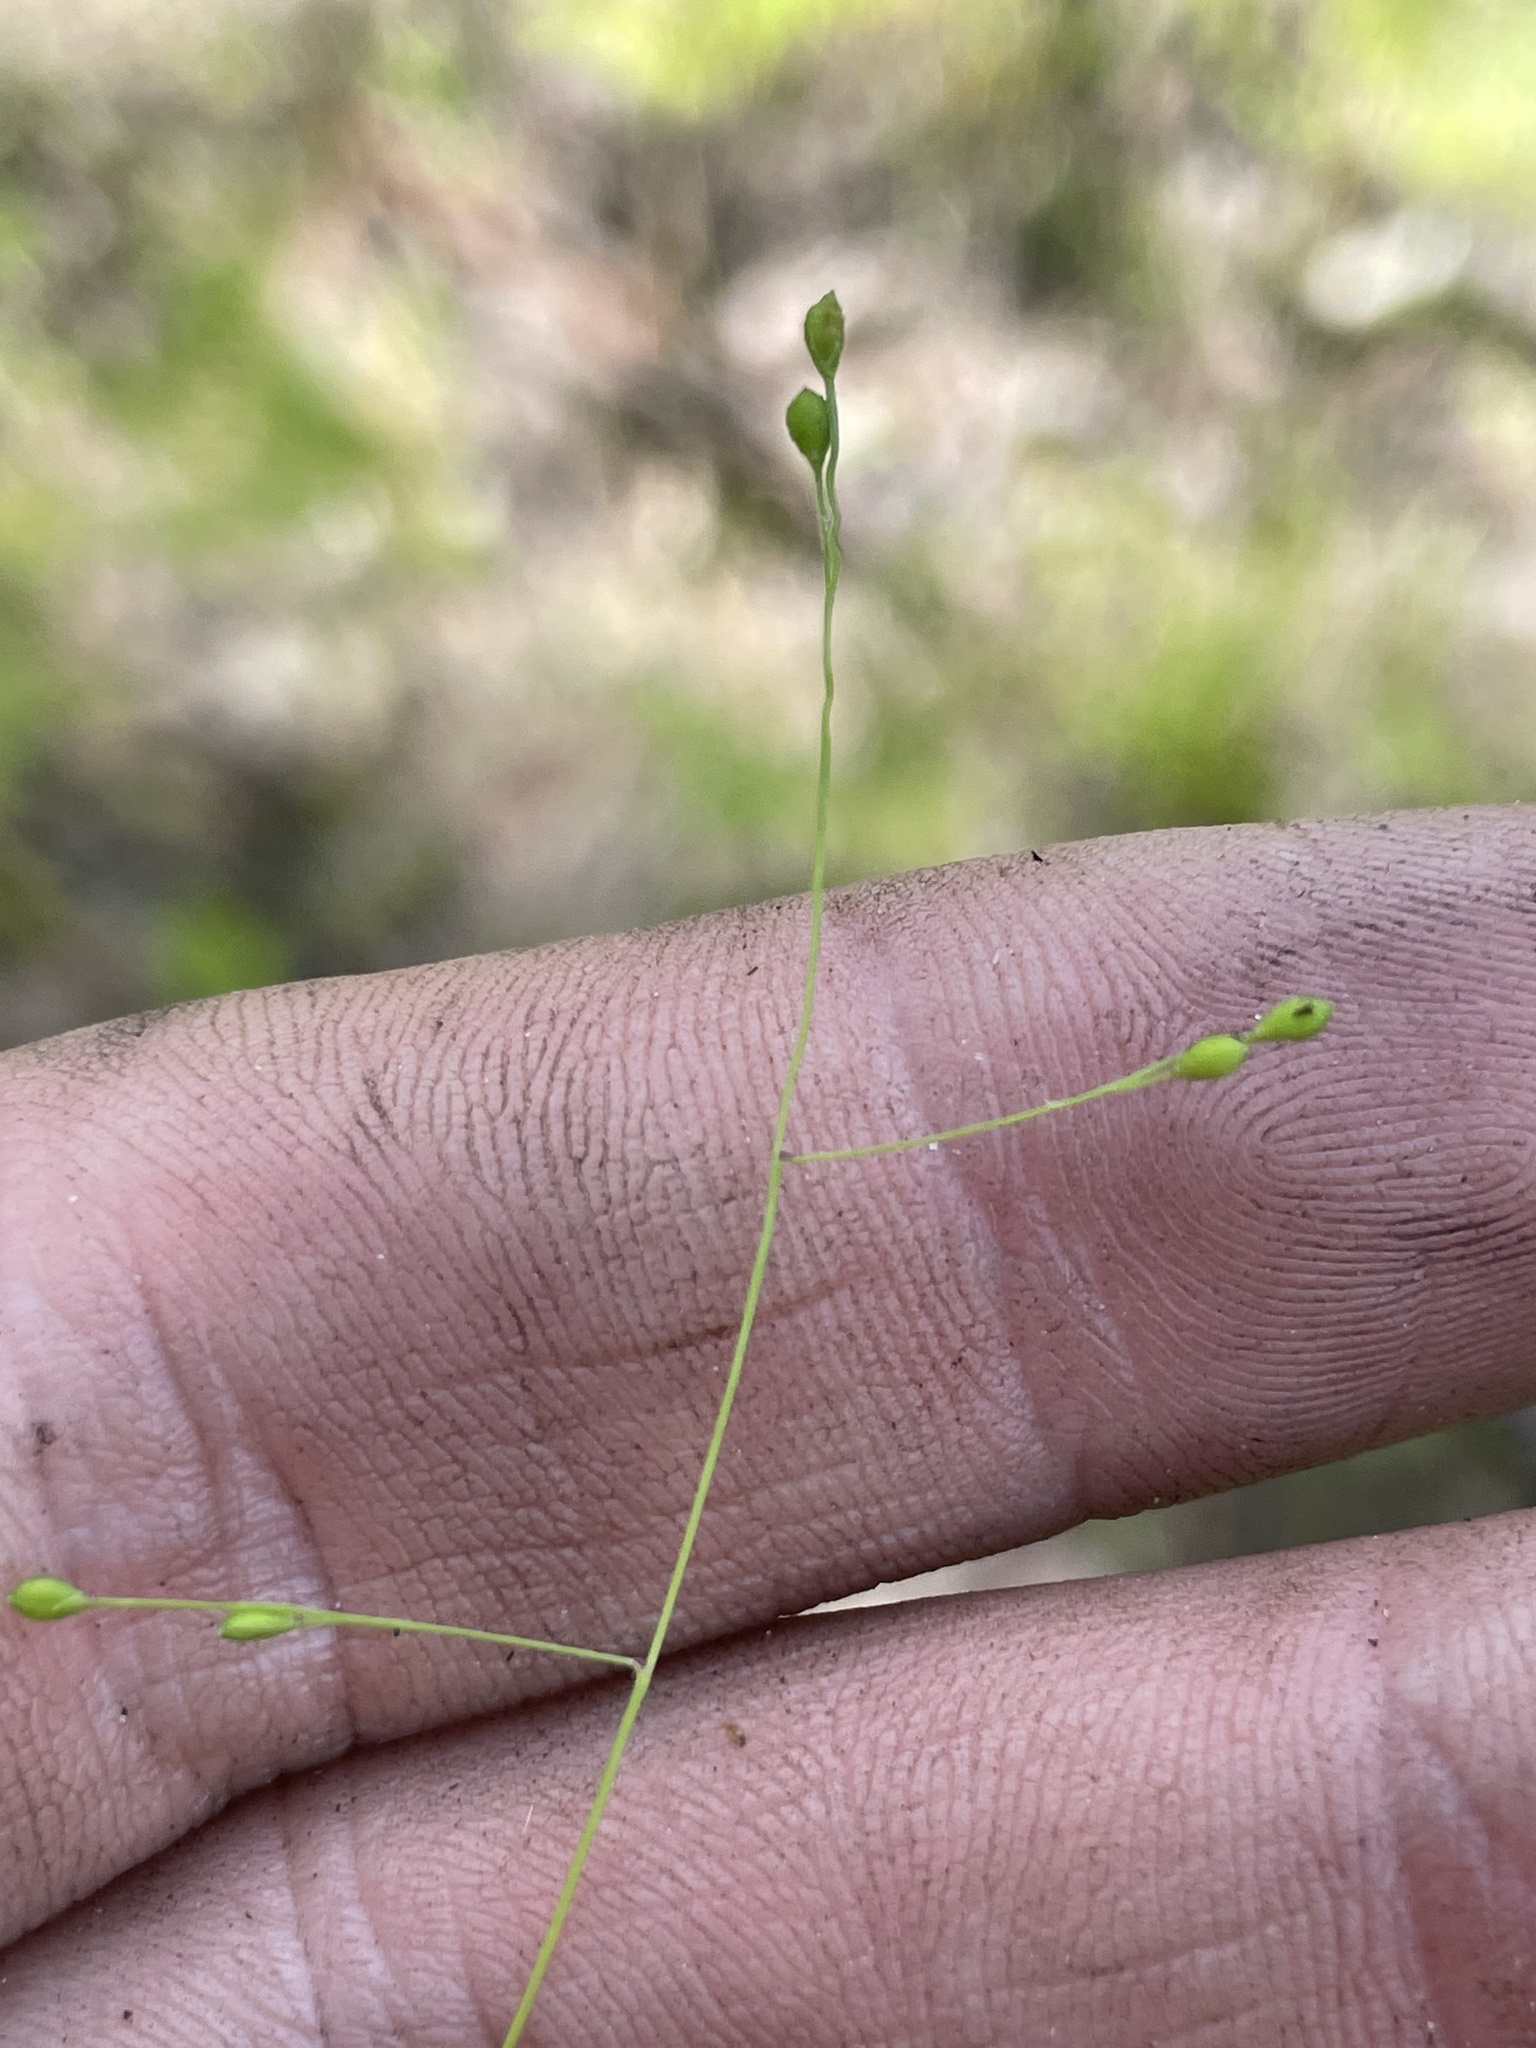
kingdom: Plantae
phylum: Tracheophyta
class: Liliopsida
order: Poales
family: Poaceae
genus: Kellochloa
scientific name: Kellochloa verrucosa
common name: Warty panic grass
